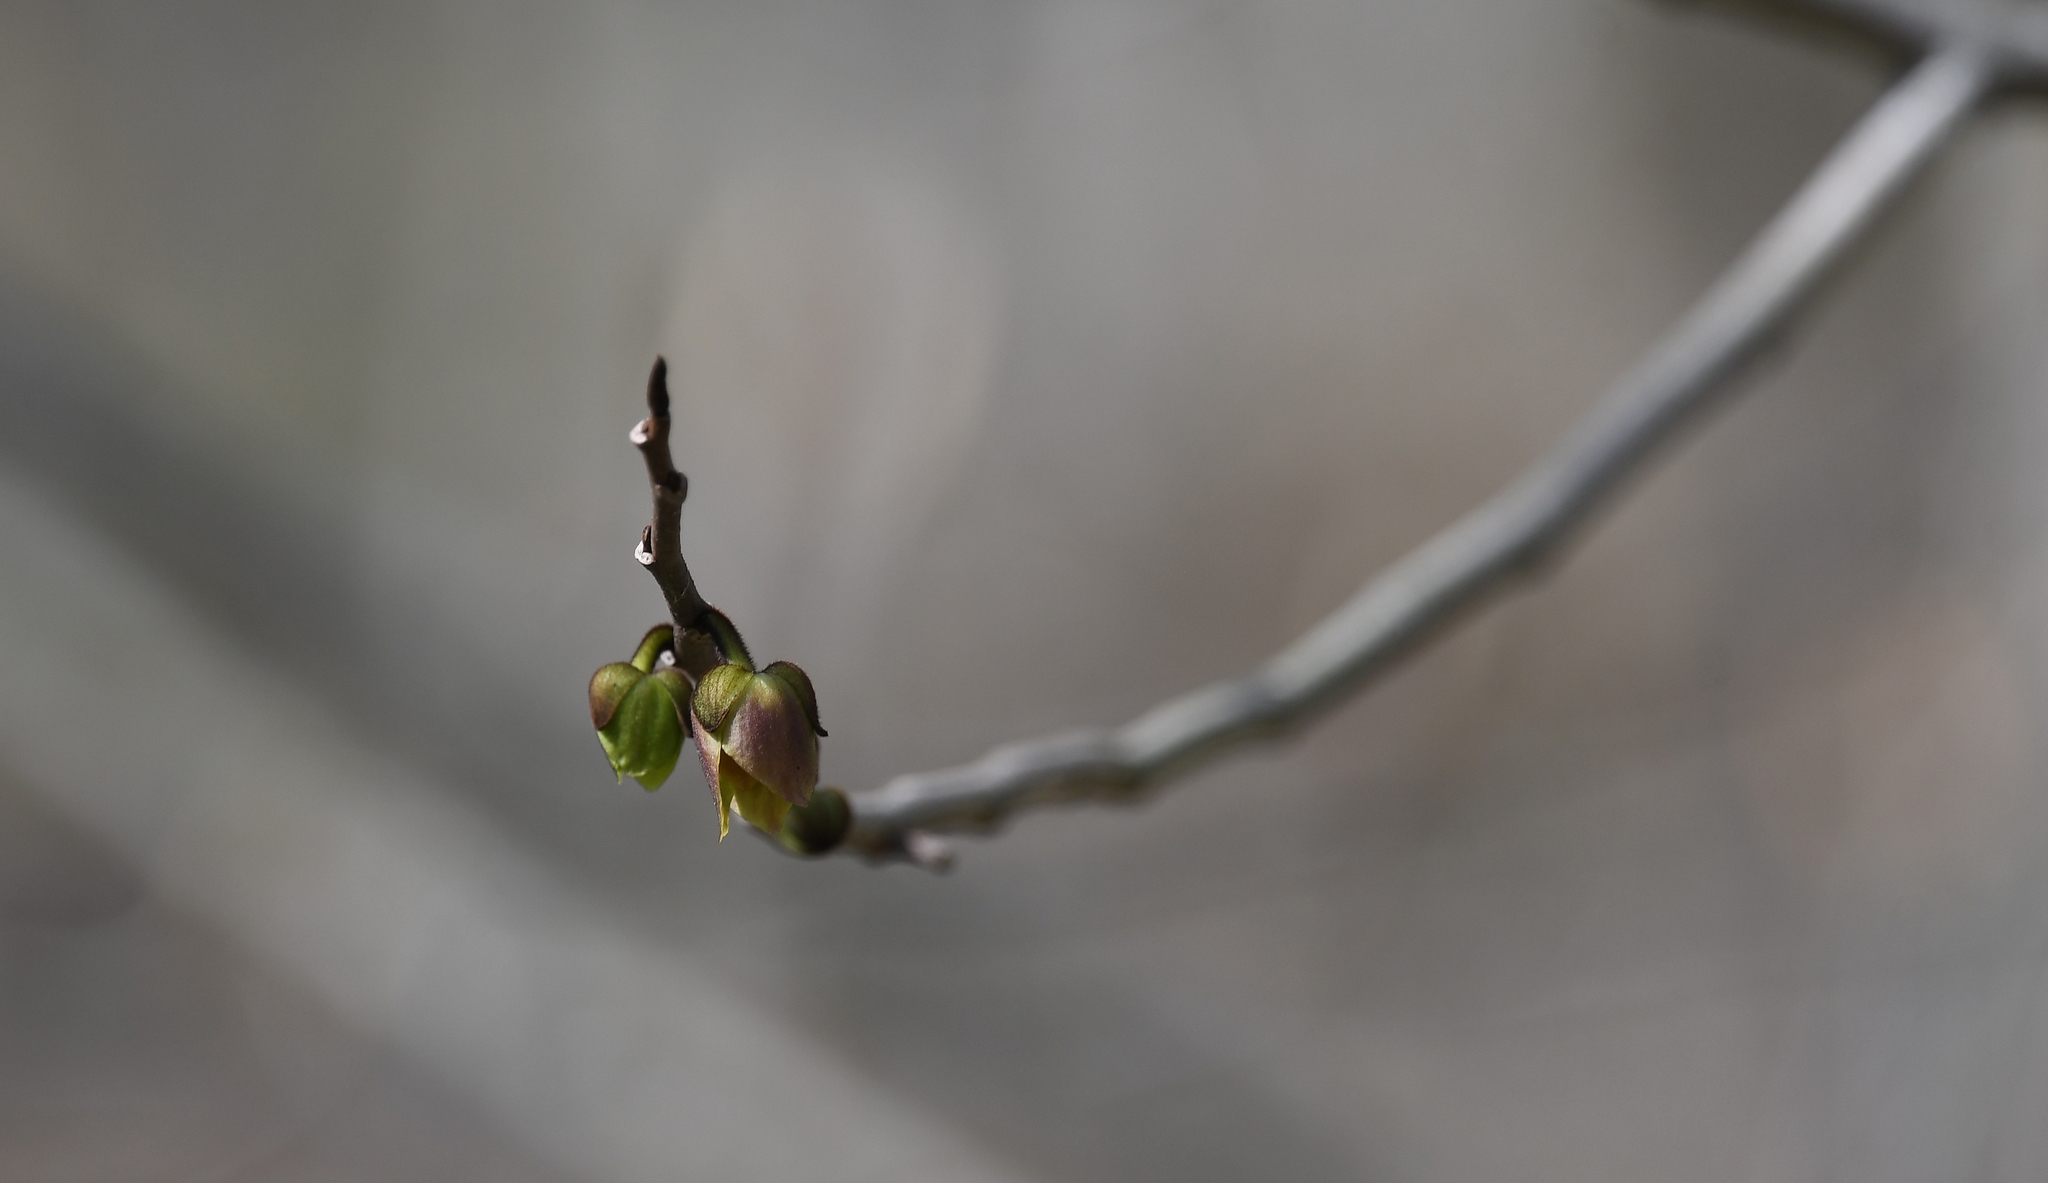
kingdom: Plantae
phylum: Tracheophyta
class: Magnoliopsida
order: Magnoliales
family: Annonaceae
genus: Asimina
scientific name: Asimina triloba
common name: Dog-banana
